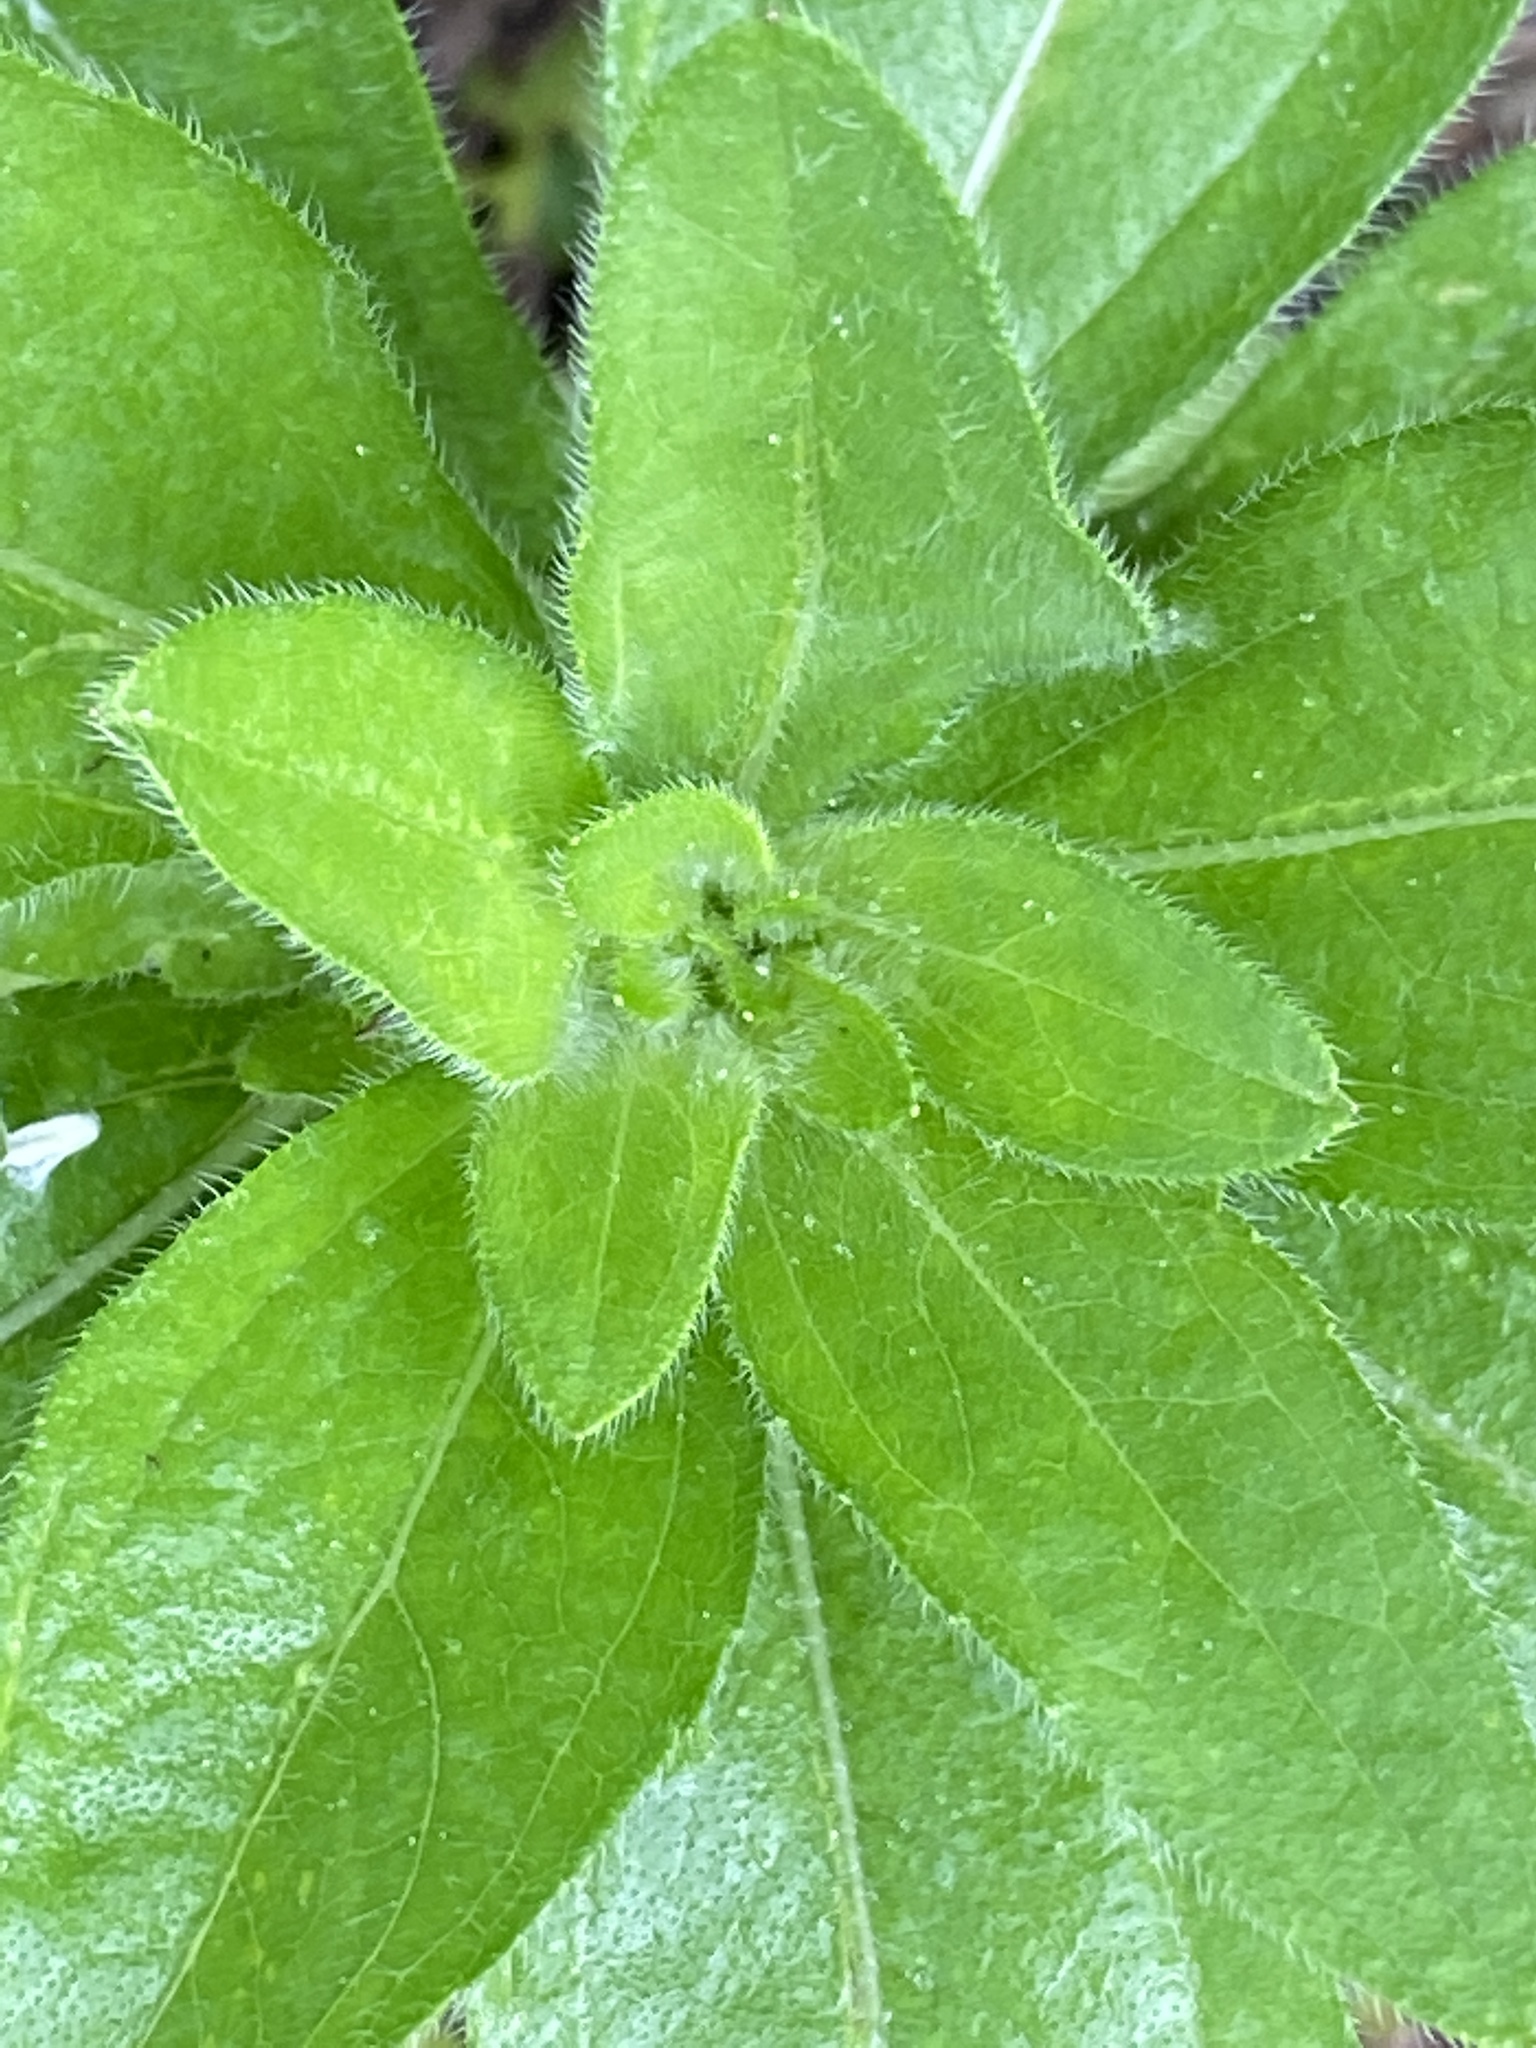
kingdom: Plantae
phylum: Tracheophyta
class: Magnoliopsida
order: Asterales
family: Asteraceae
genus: Rudbeckia
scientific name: Rudbeckia hirta
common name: Black-eyed-susan
